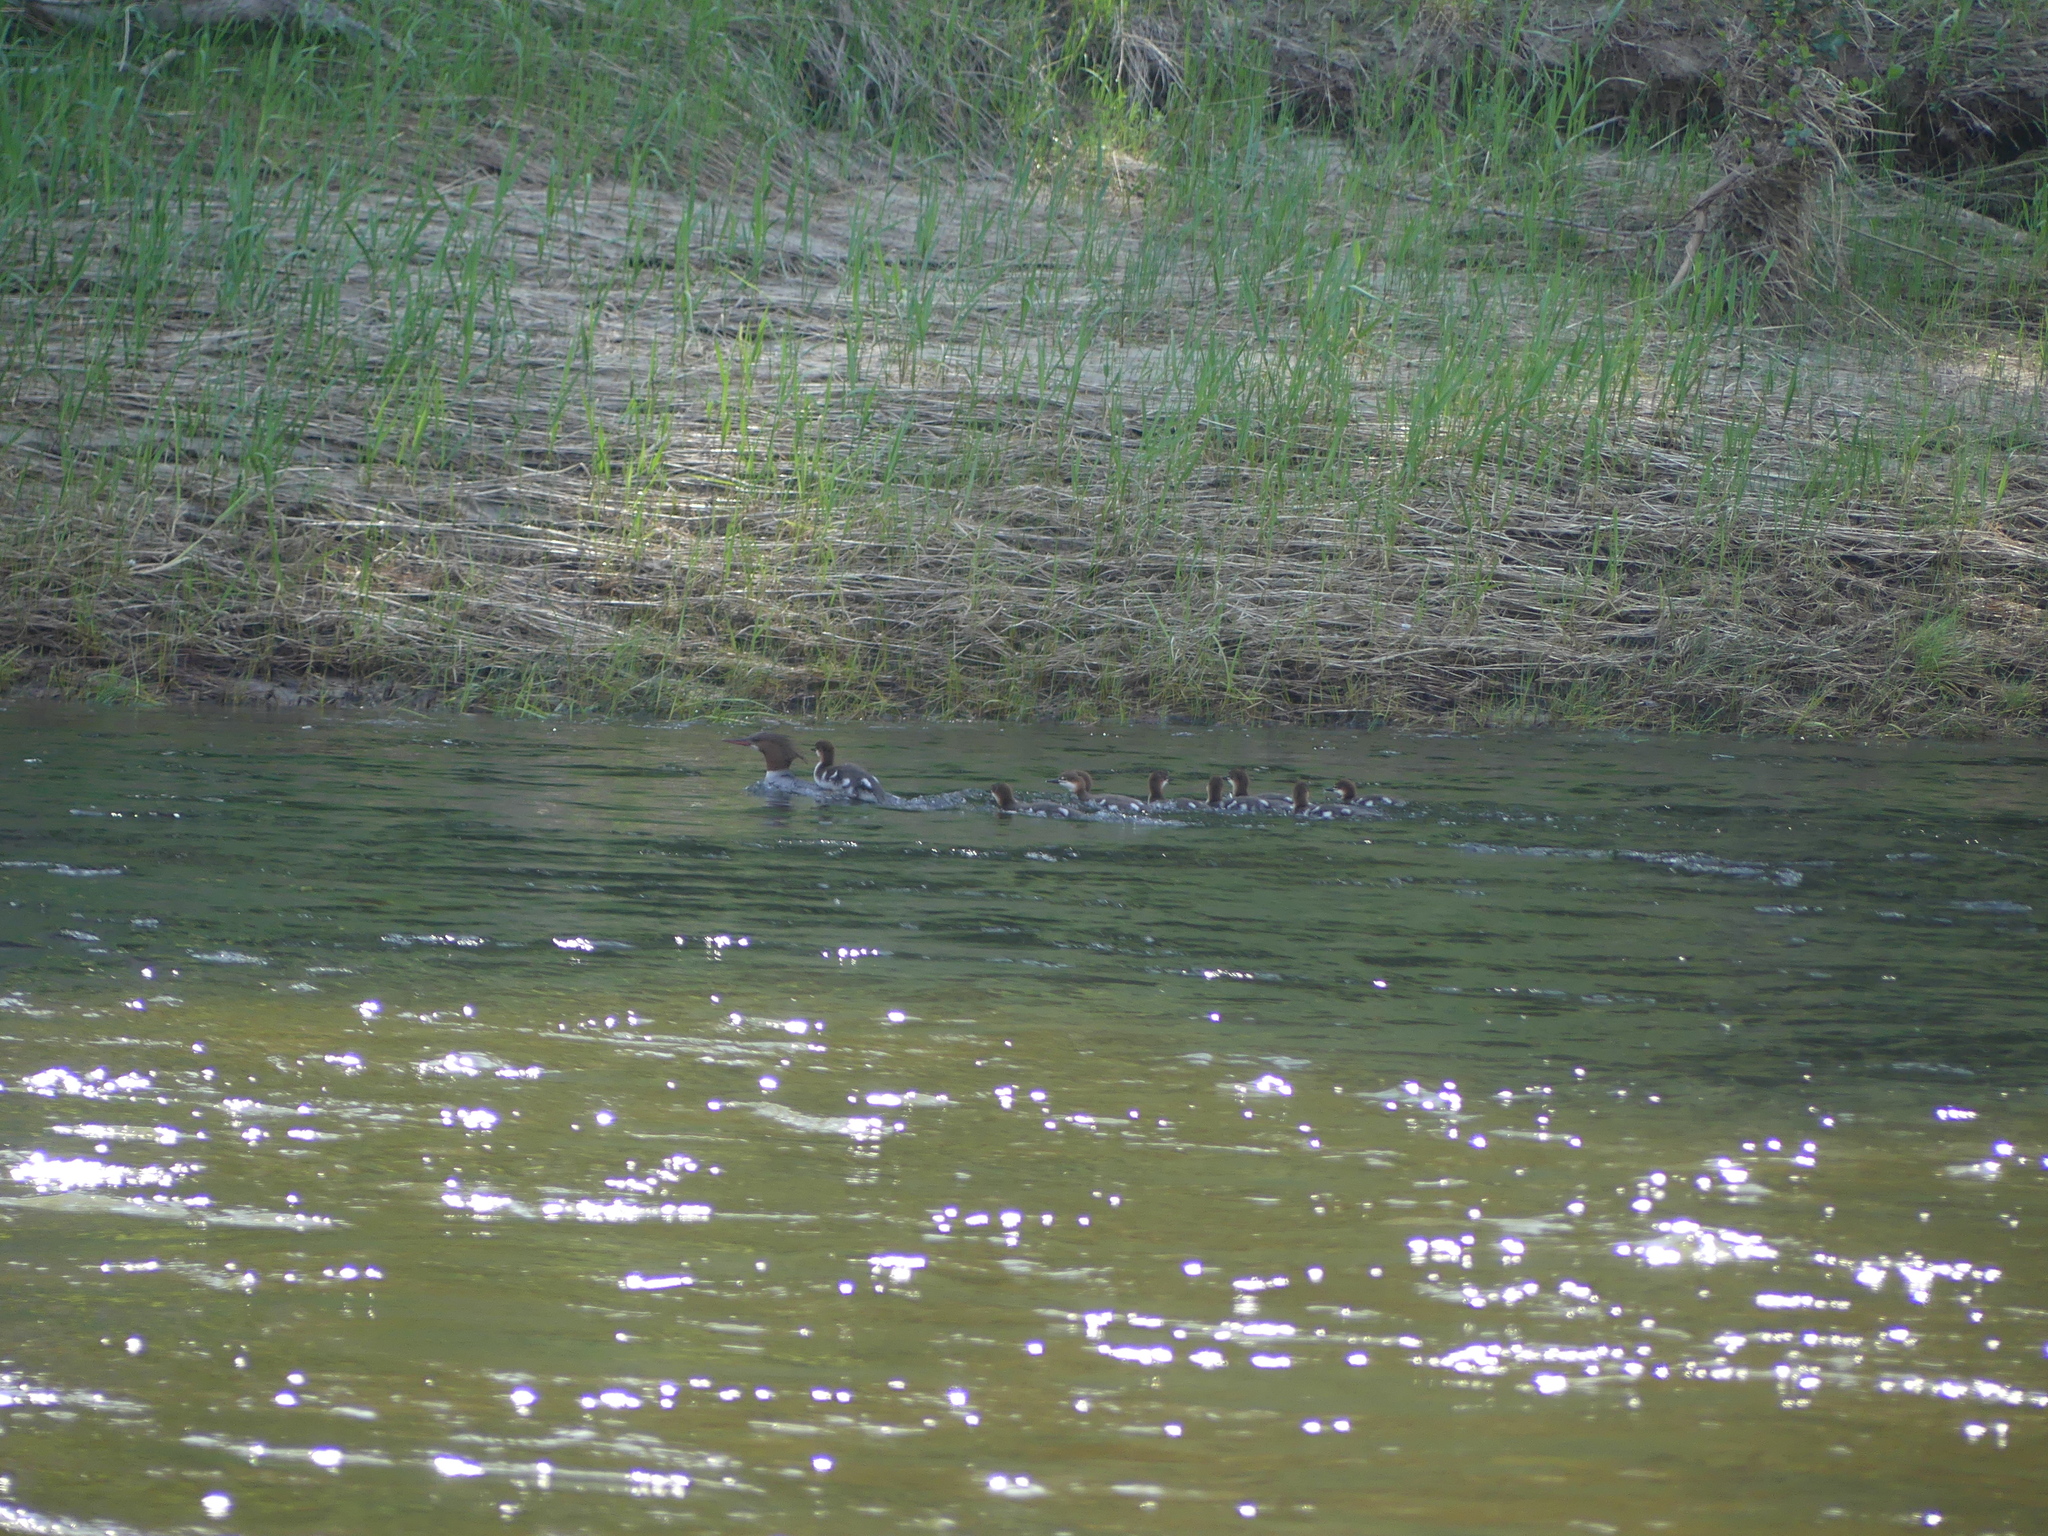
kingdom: Animalia
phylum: Chordata
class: Aves
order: Anseriformes
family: Anatidae
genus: Mergus
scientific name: Mergus merganser
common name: Common merganser
